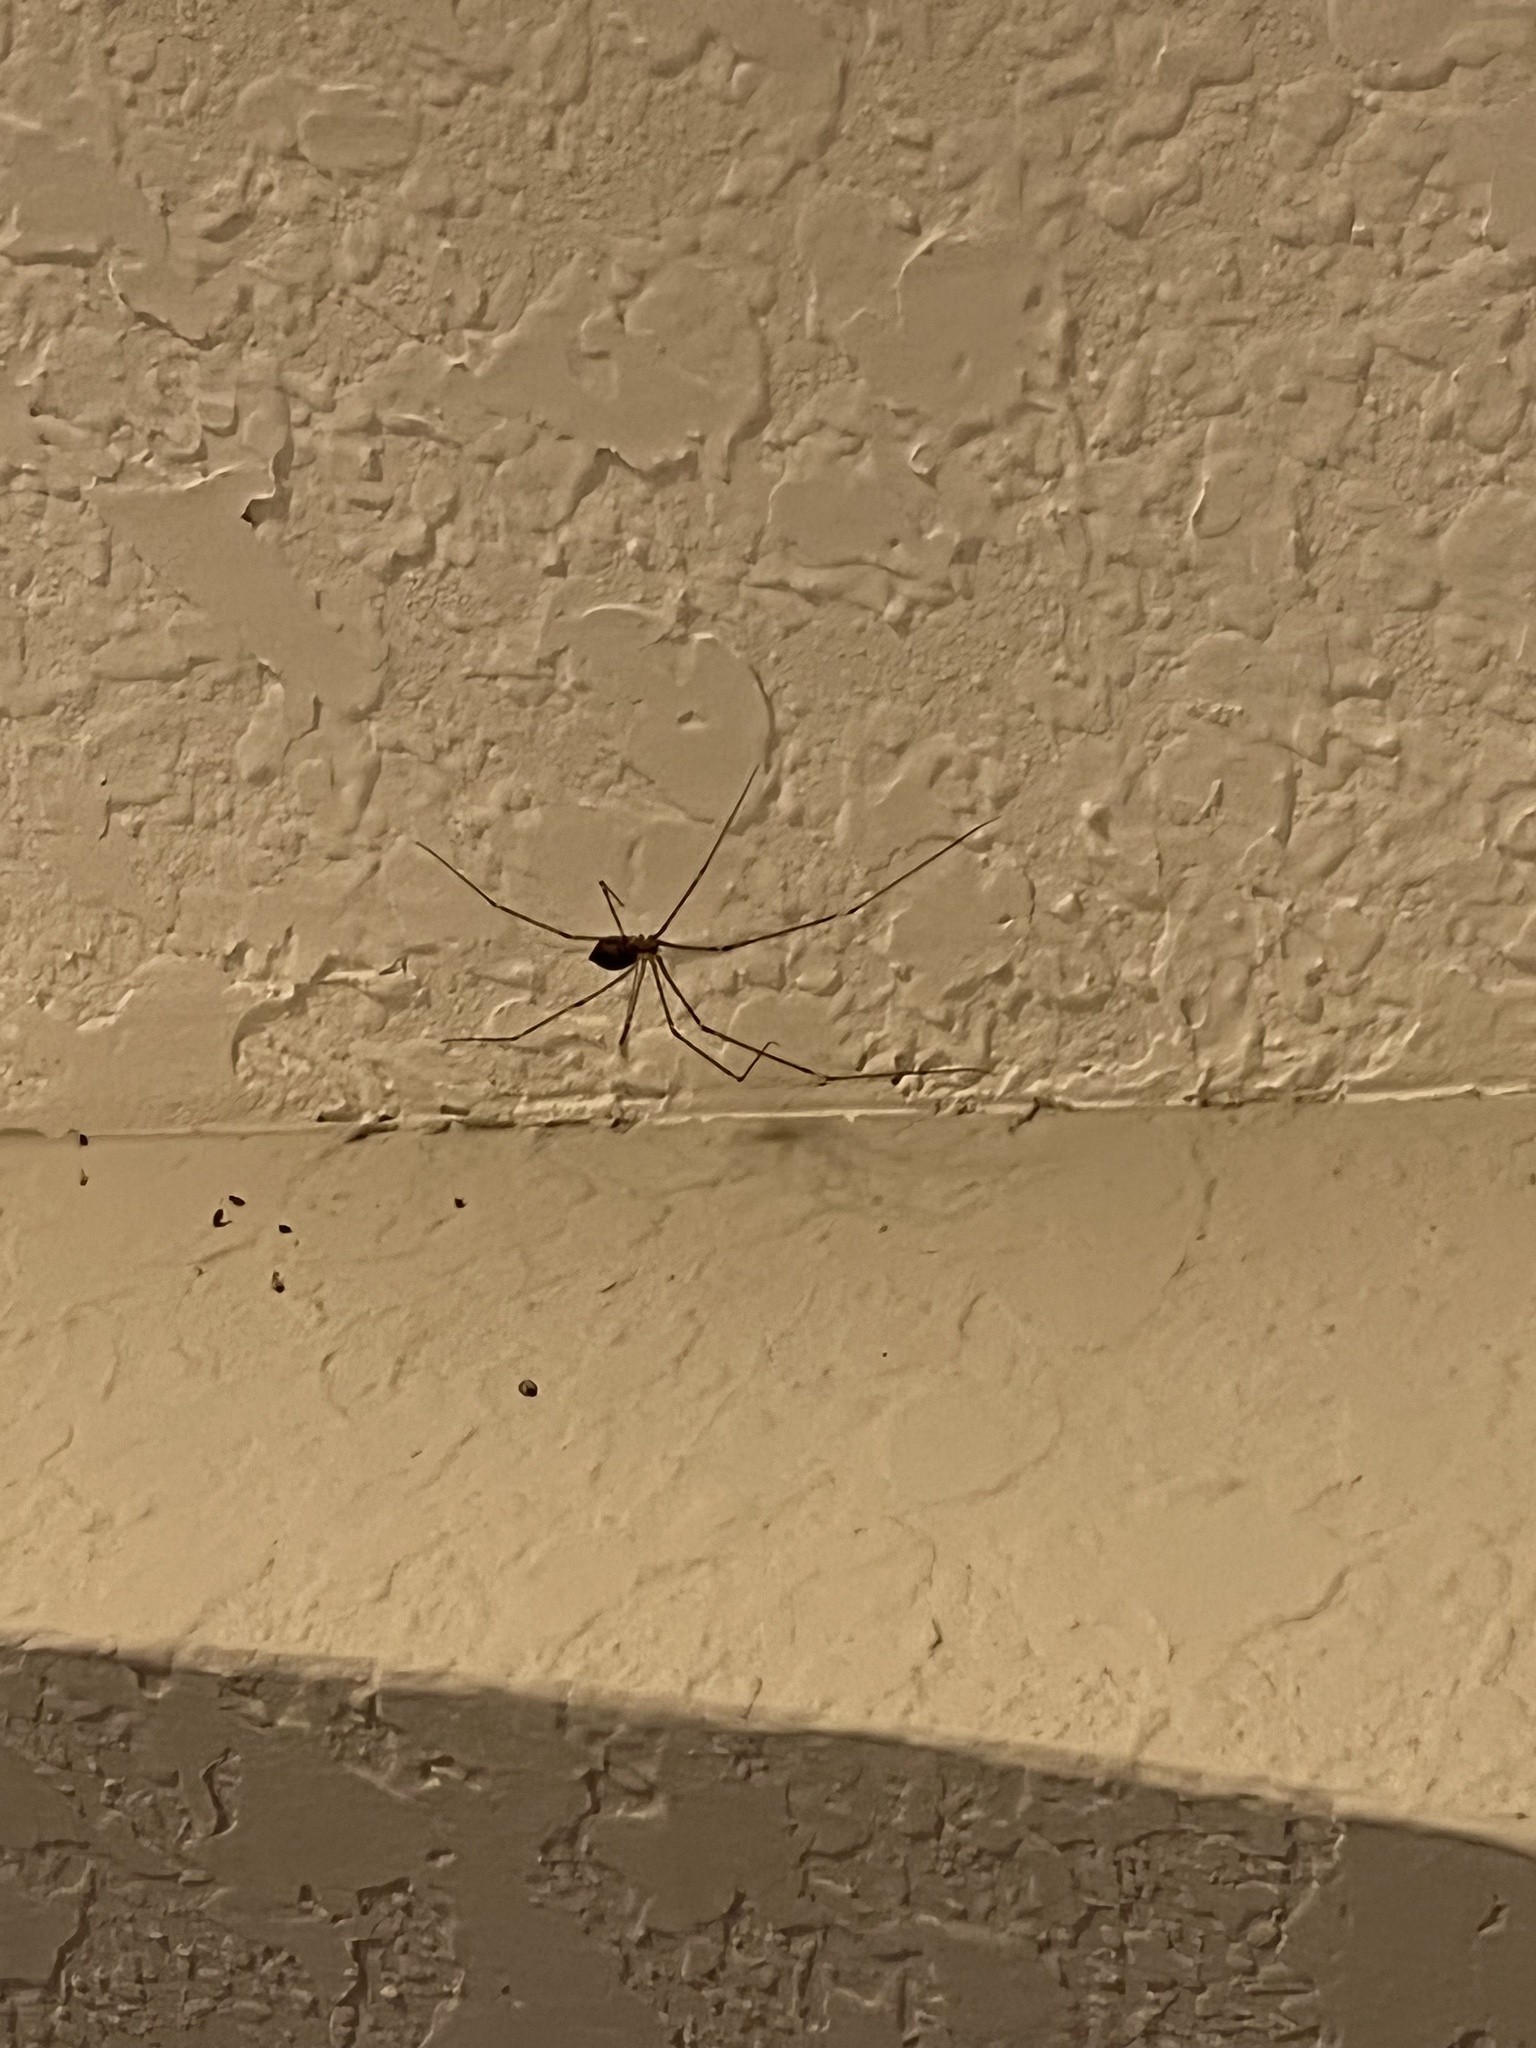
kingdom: Animalia
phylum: Arthropoda
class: Arachnida
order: Araneae
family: Pholcidae
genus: Crossopriza
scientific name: Crossopriza lyoni
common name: Cellar spiders
